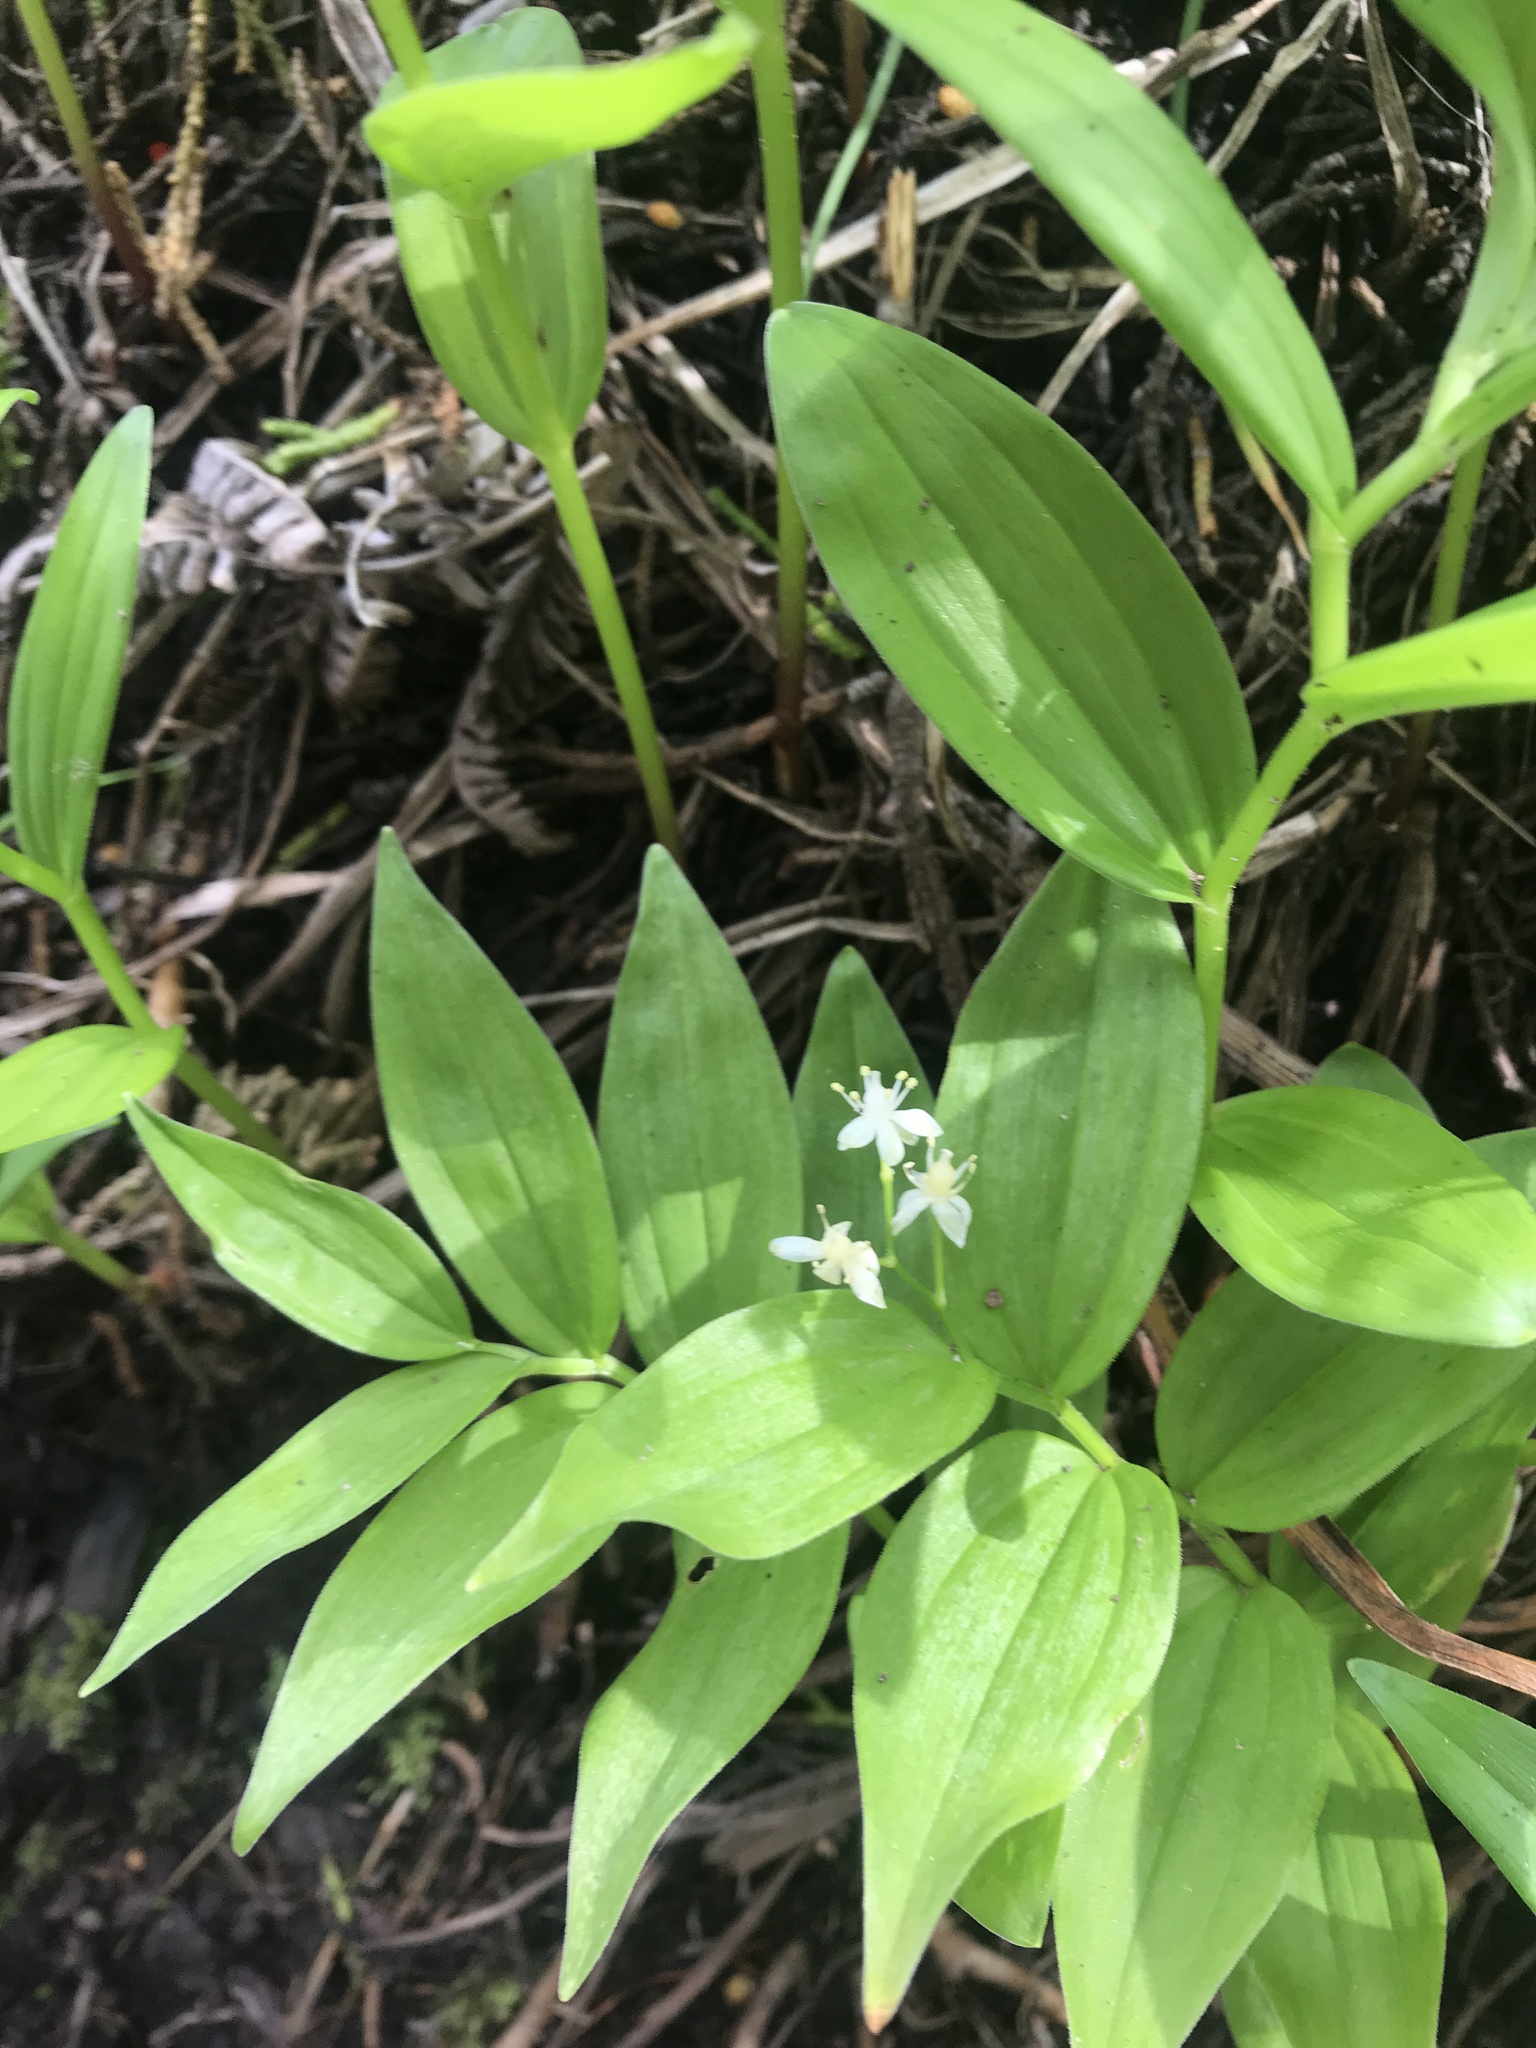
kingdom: Plantae
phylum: Tracheophyta
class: Liliopsida
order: Asparagales
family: Asparagaceae
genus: Maianthemum
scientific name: Maianthemum stellatum
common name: Little false solomon's seal
